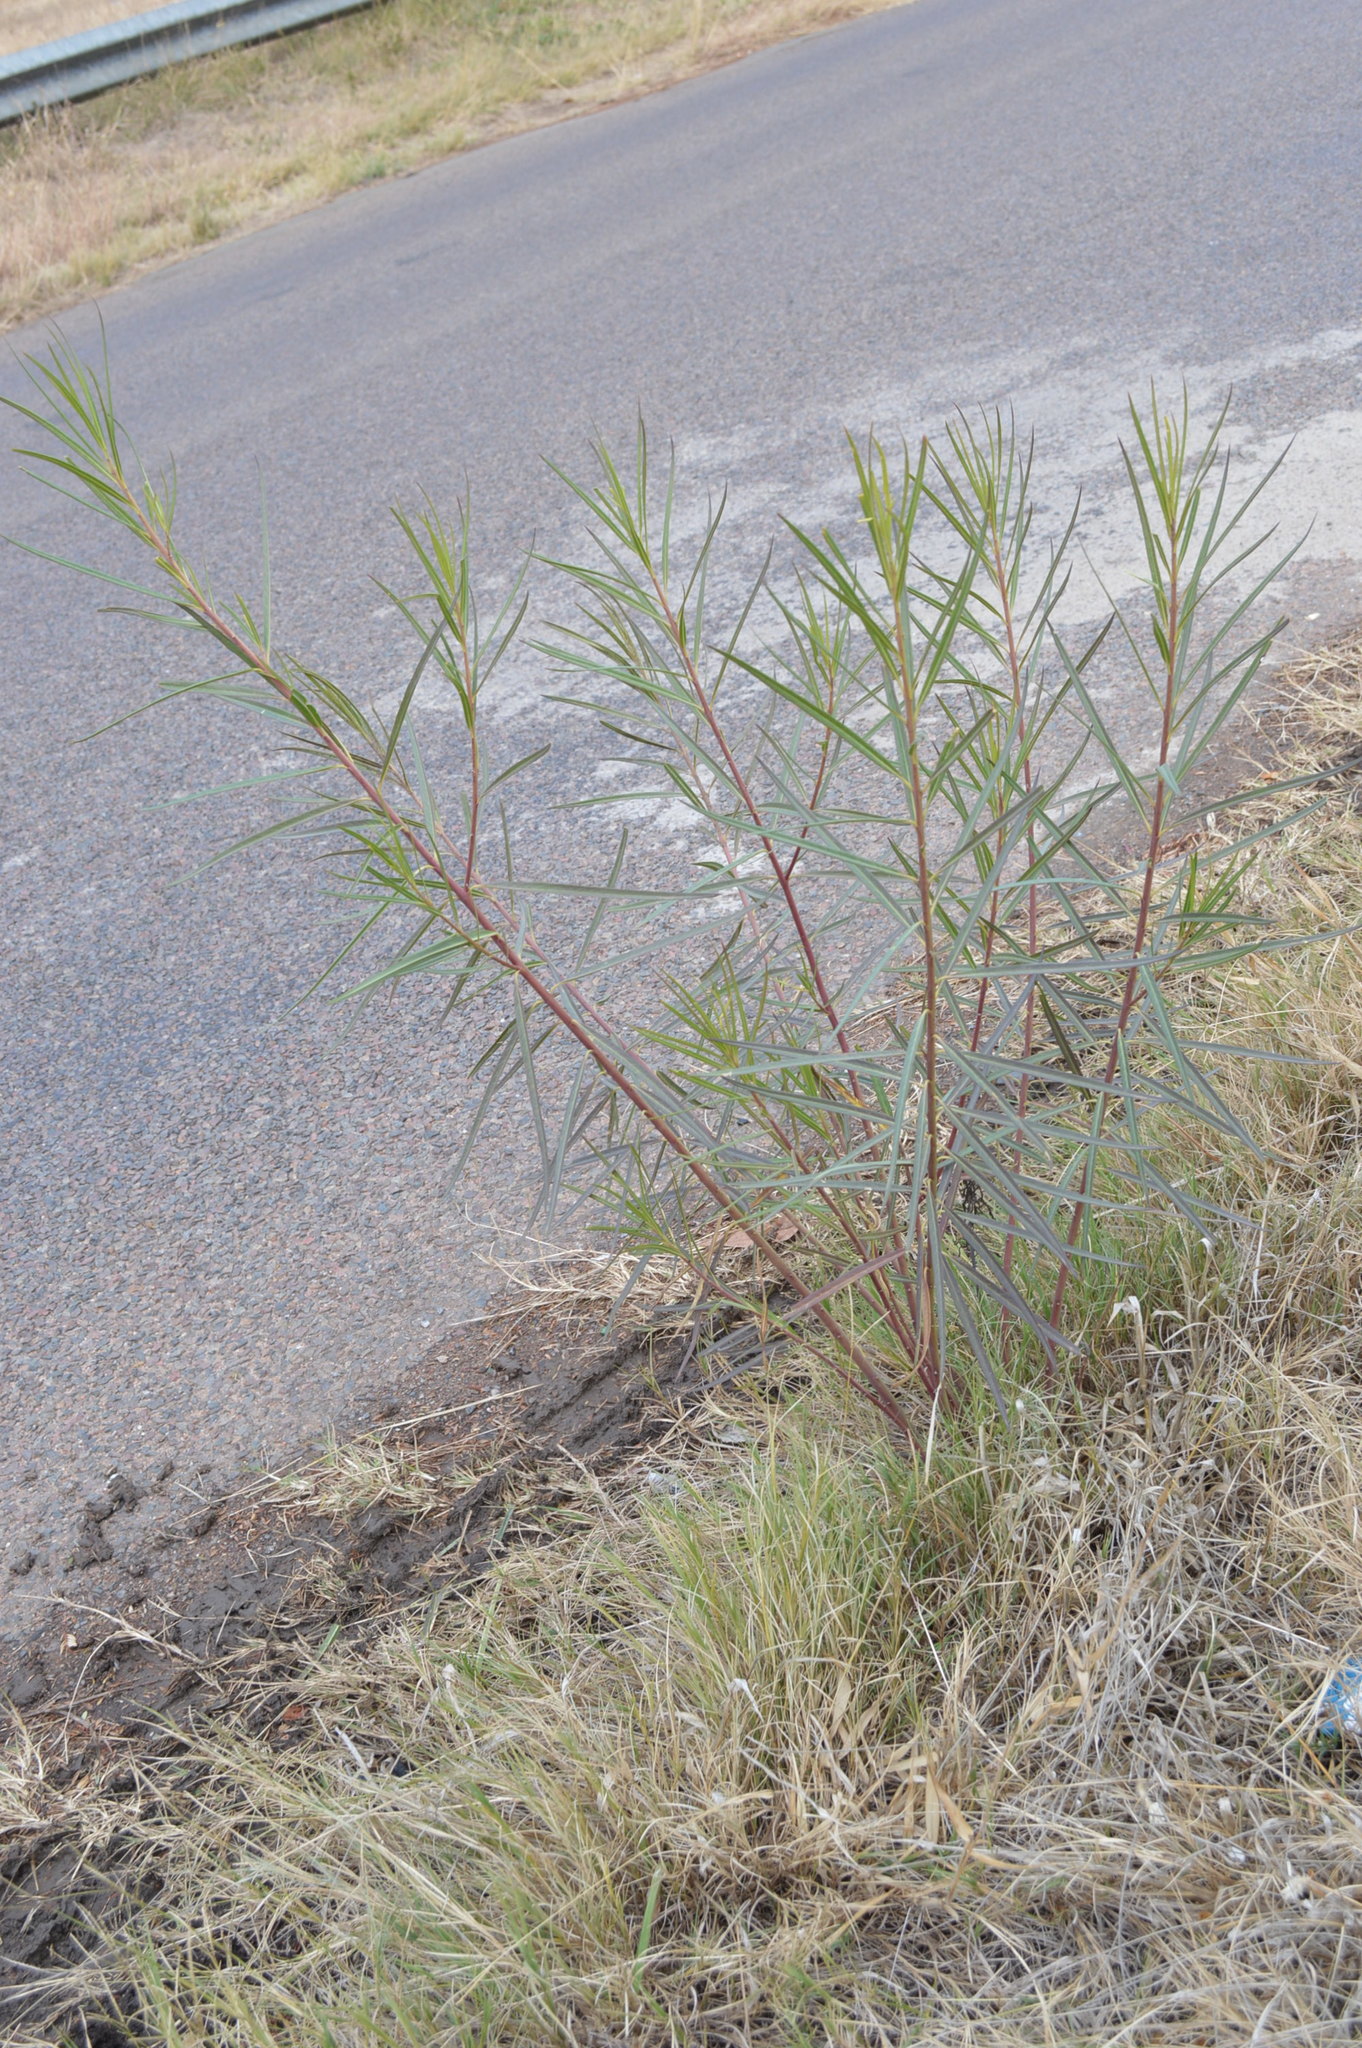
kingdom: Plantae
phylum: Tracheophyta
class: Magnoliopsida
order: Gentianales
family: Apocynaceae
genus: Gomphocarpus
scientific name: Gomphocarpus fruticosus
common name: Milkweed
